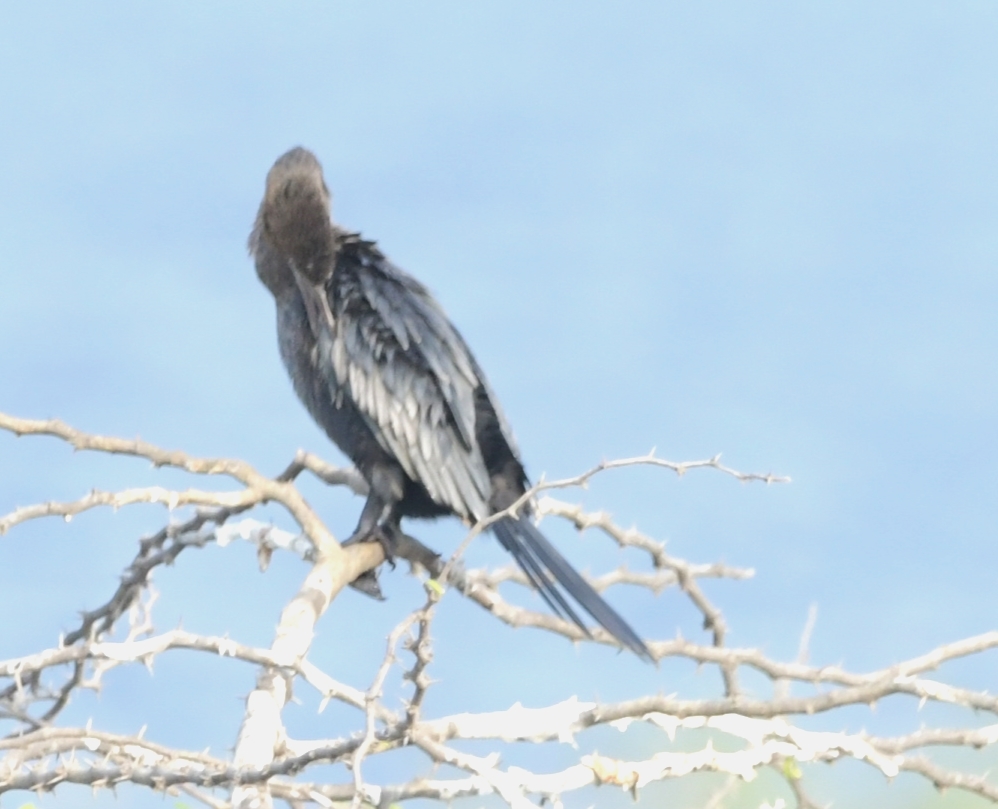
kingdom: Animalia
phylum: Chordata
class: Aves
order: Suliformes
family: Phalacrocoracidae
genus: Microcarbo
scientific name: Microcarbo niger
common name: Little cormorant
